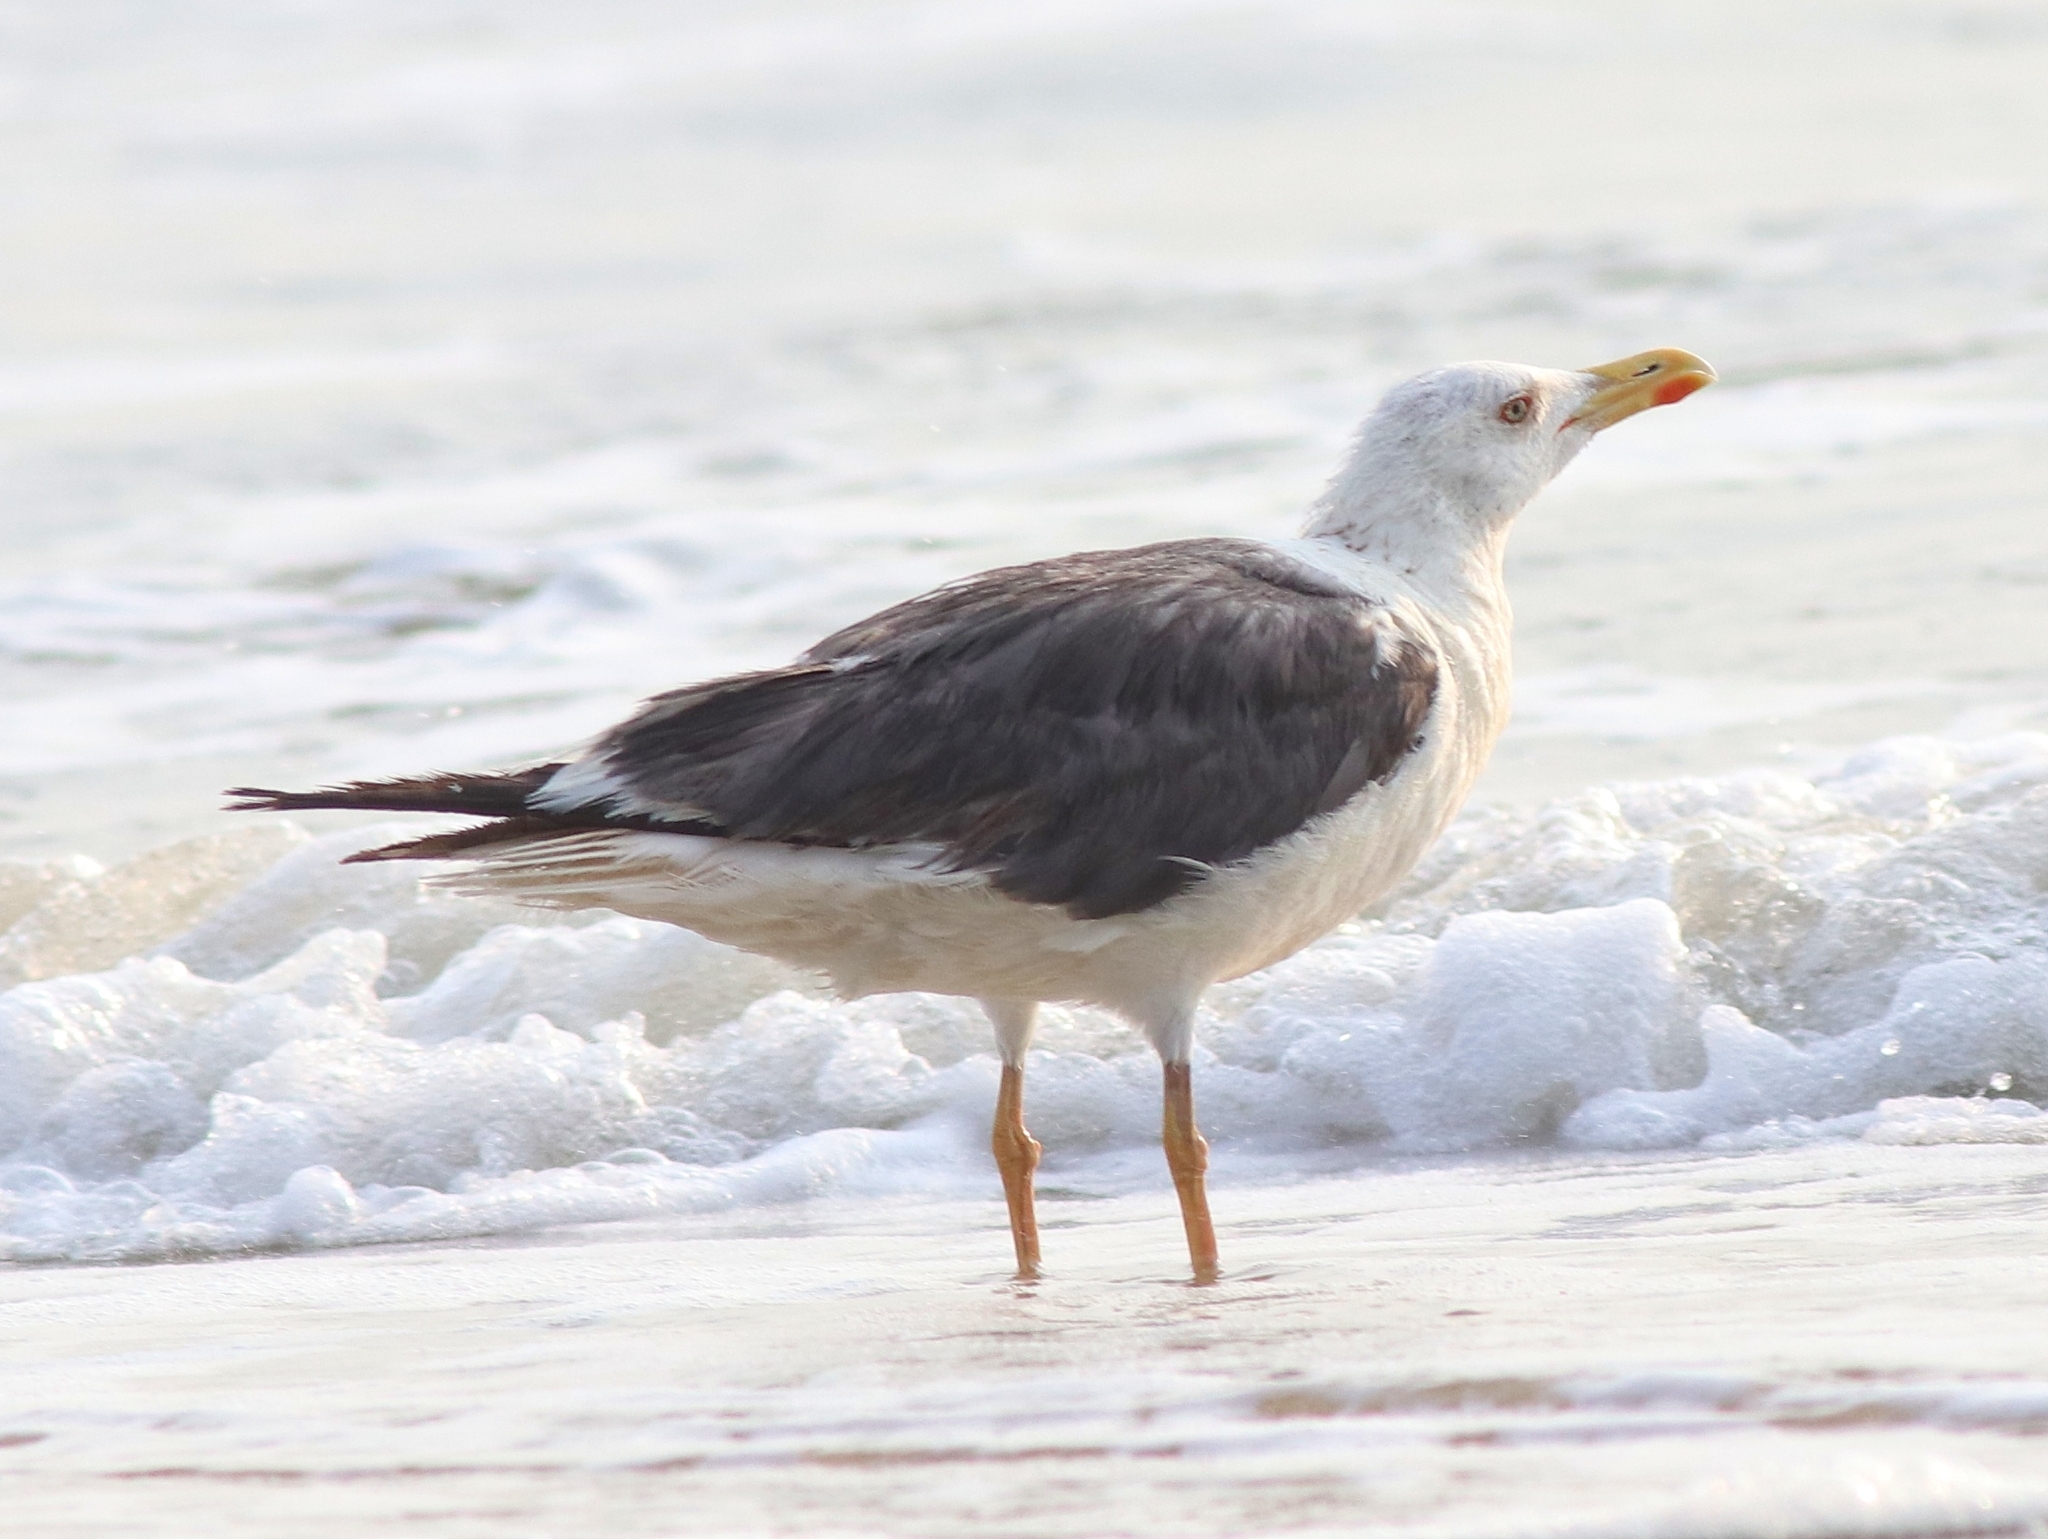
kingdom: Animalia
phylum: Chordata
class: Aves
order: Charadriiformes
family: Laridae
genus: Larus
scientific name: Larus fuscus
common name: Lesser black-backed gull
